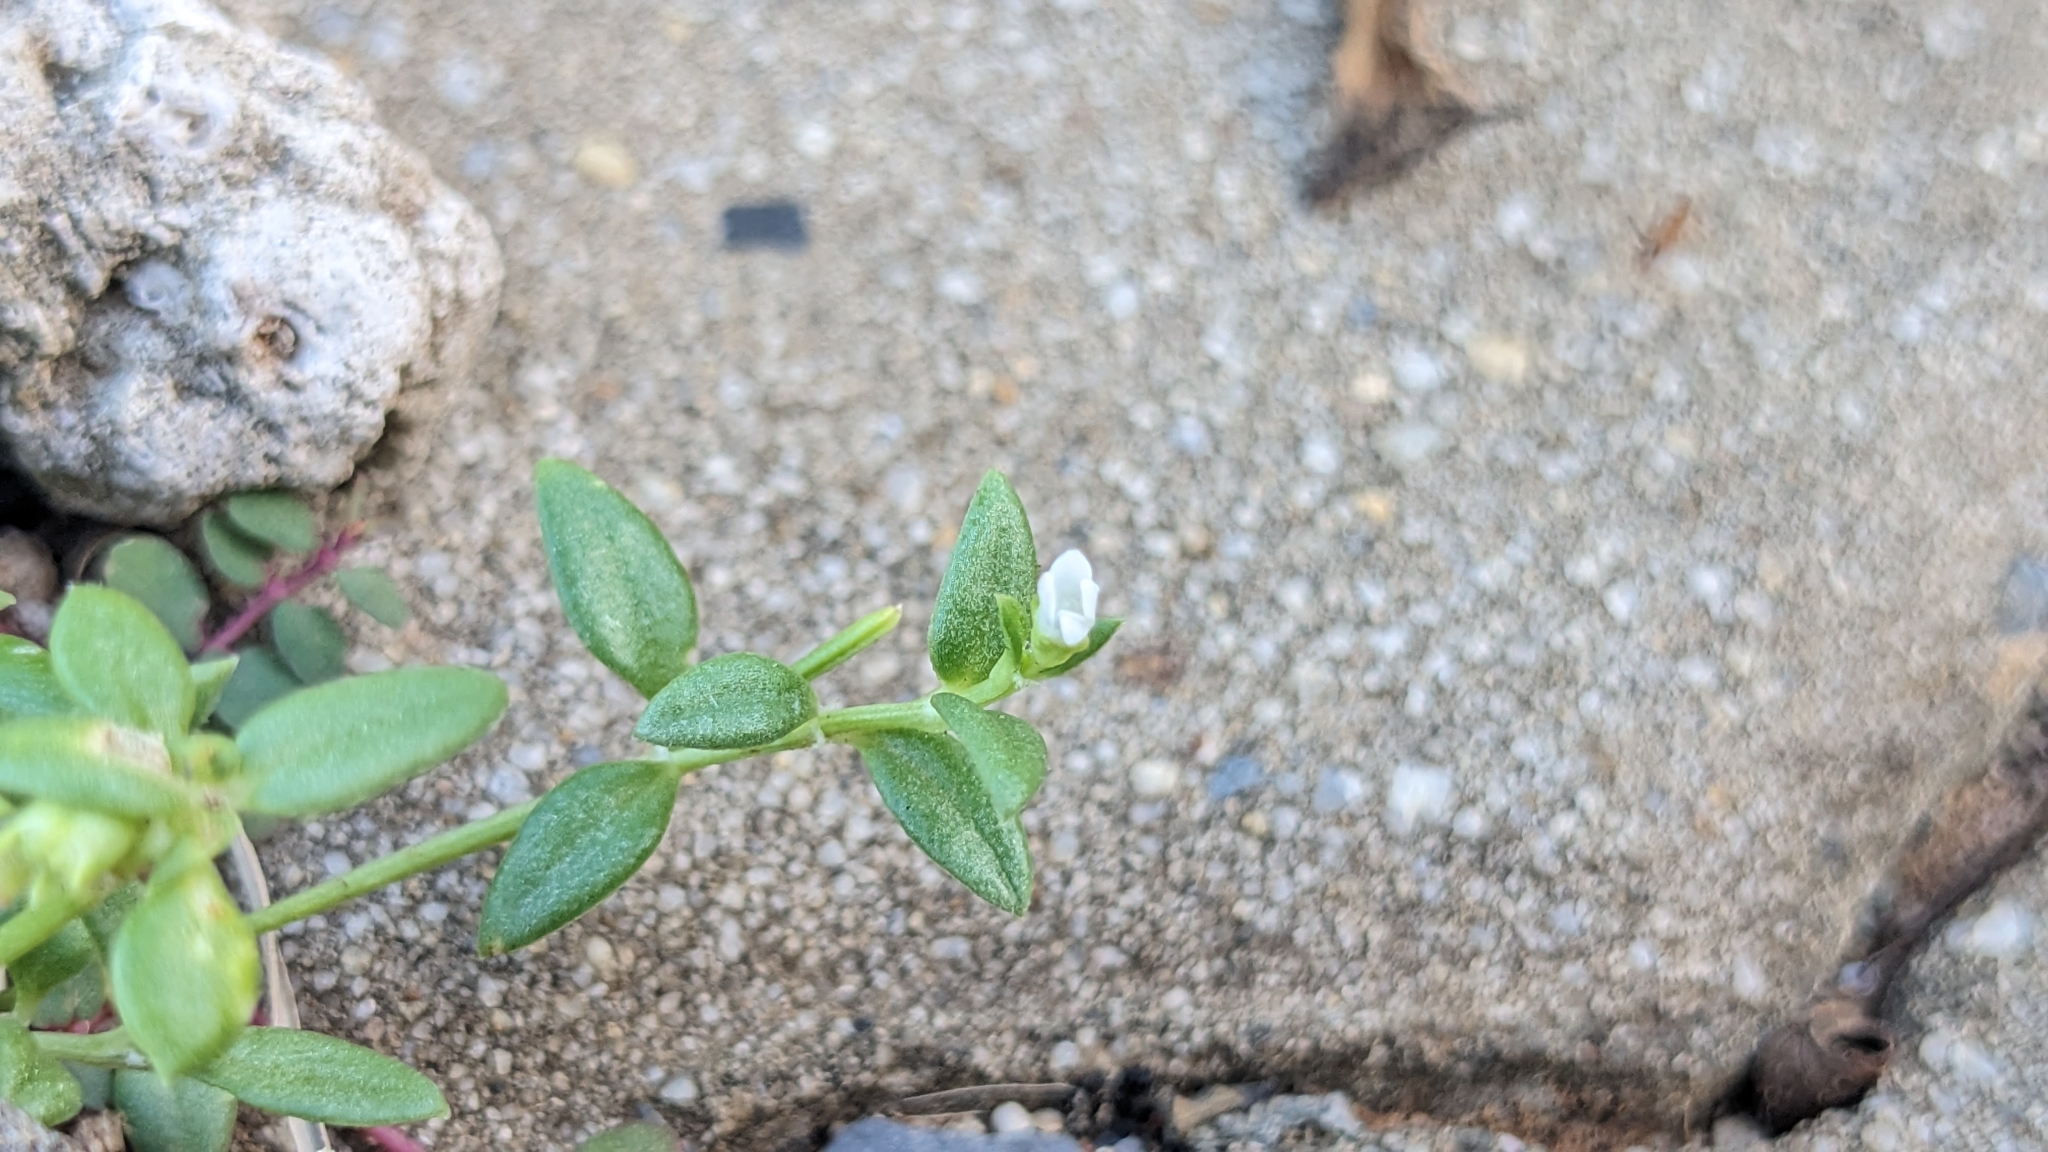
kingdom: Plantae
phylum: Tracheophyta
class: Magnoliopsida
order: Gentianales
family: Rubiaceae
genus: Leptopetalum
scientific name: Leptopetalum taiwanense
